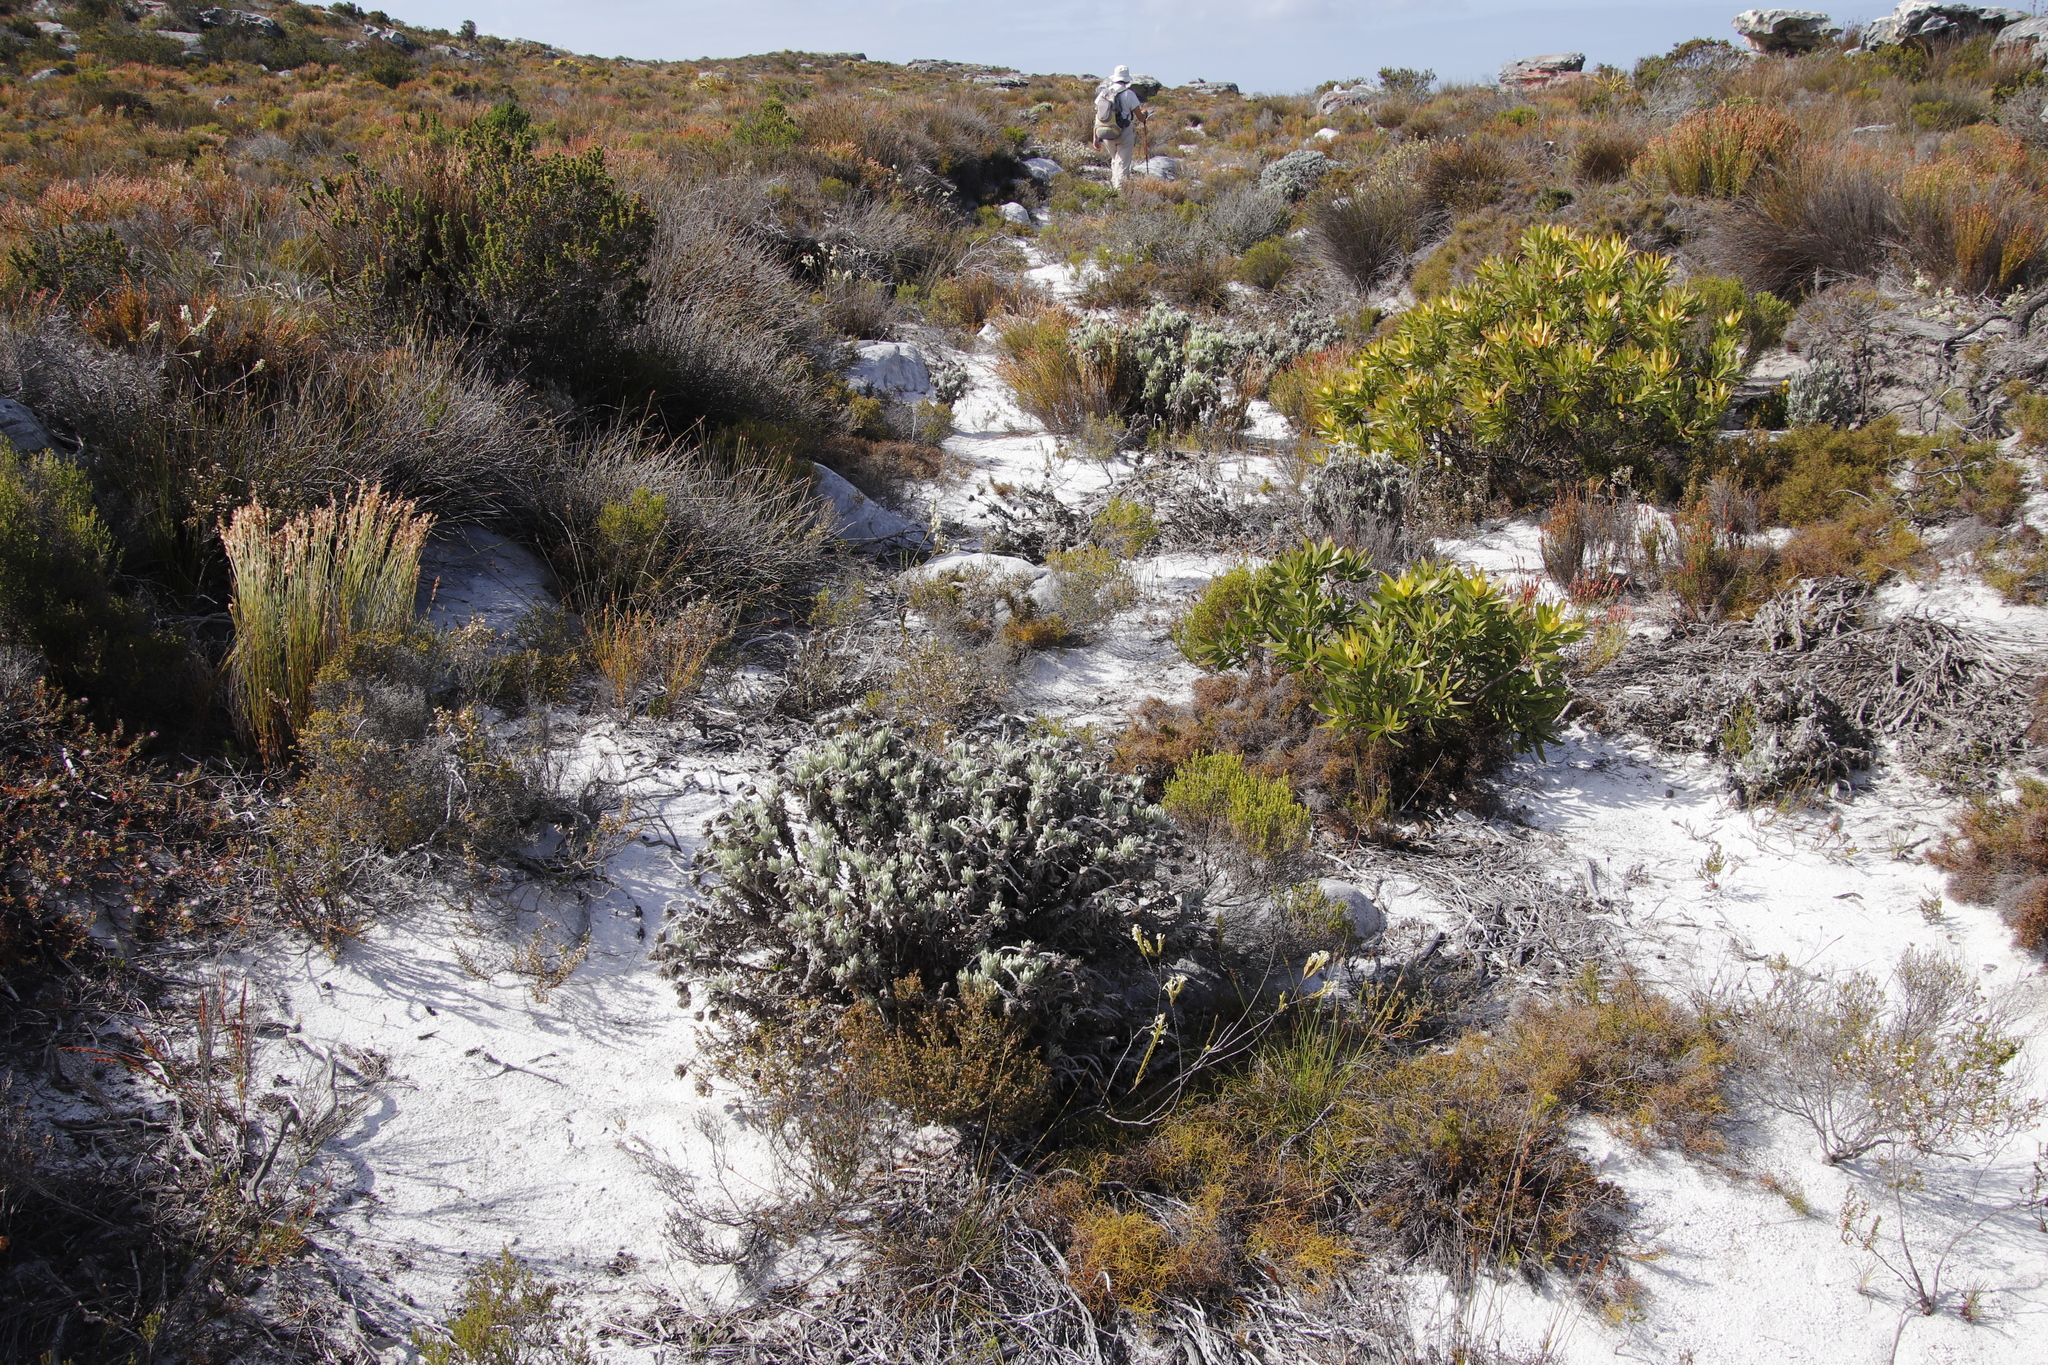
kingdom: Plantae
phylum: Tracheophyta
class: Magnoliopsida
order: Asterales
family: Asteraceae
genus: Syncarpha
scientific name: Syncarpha vestita
